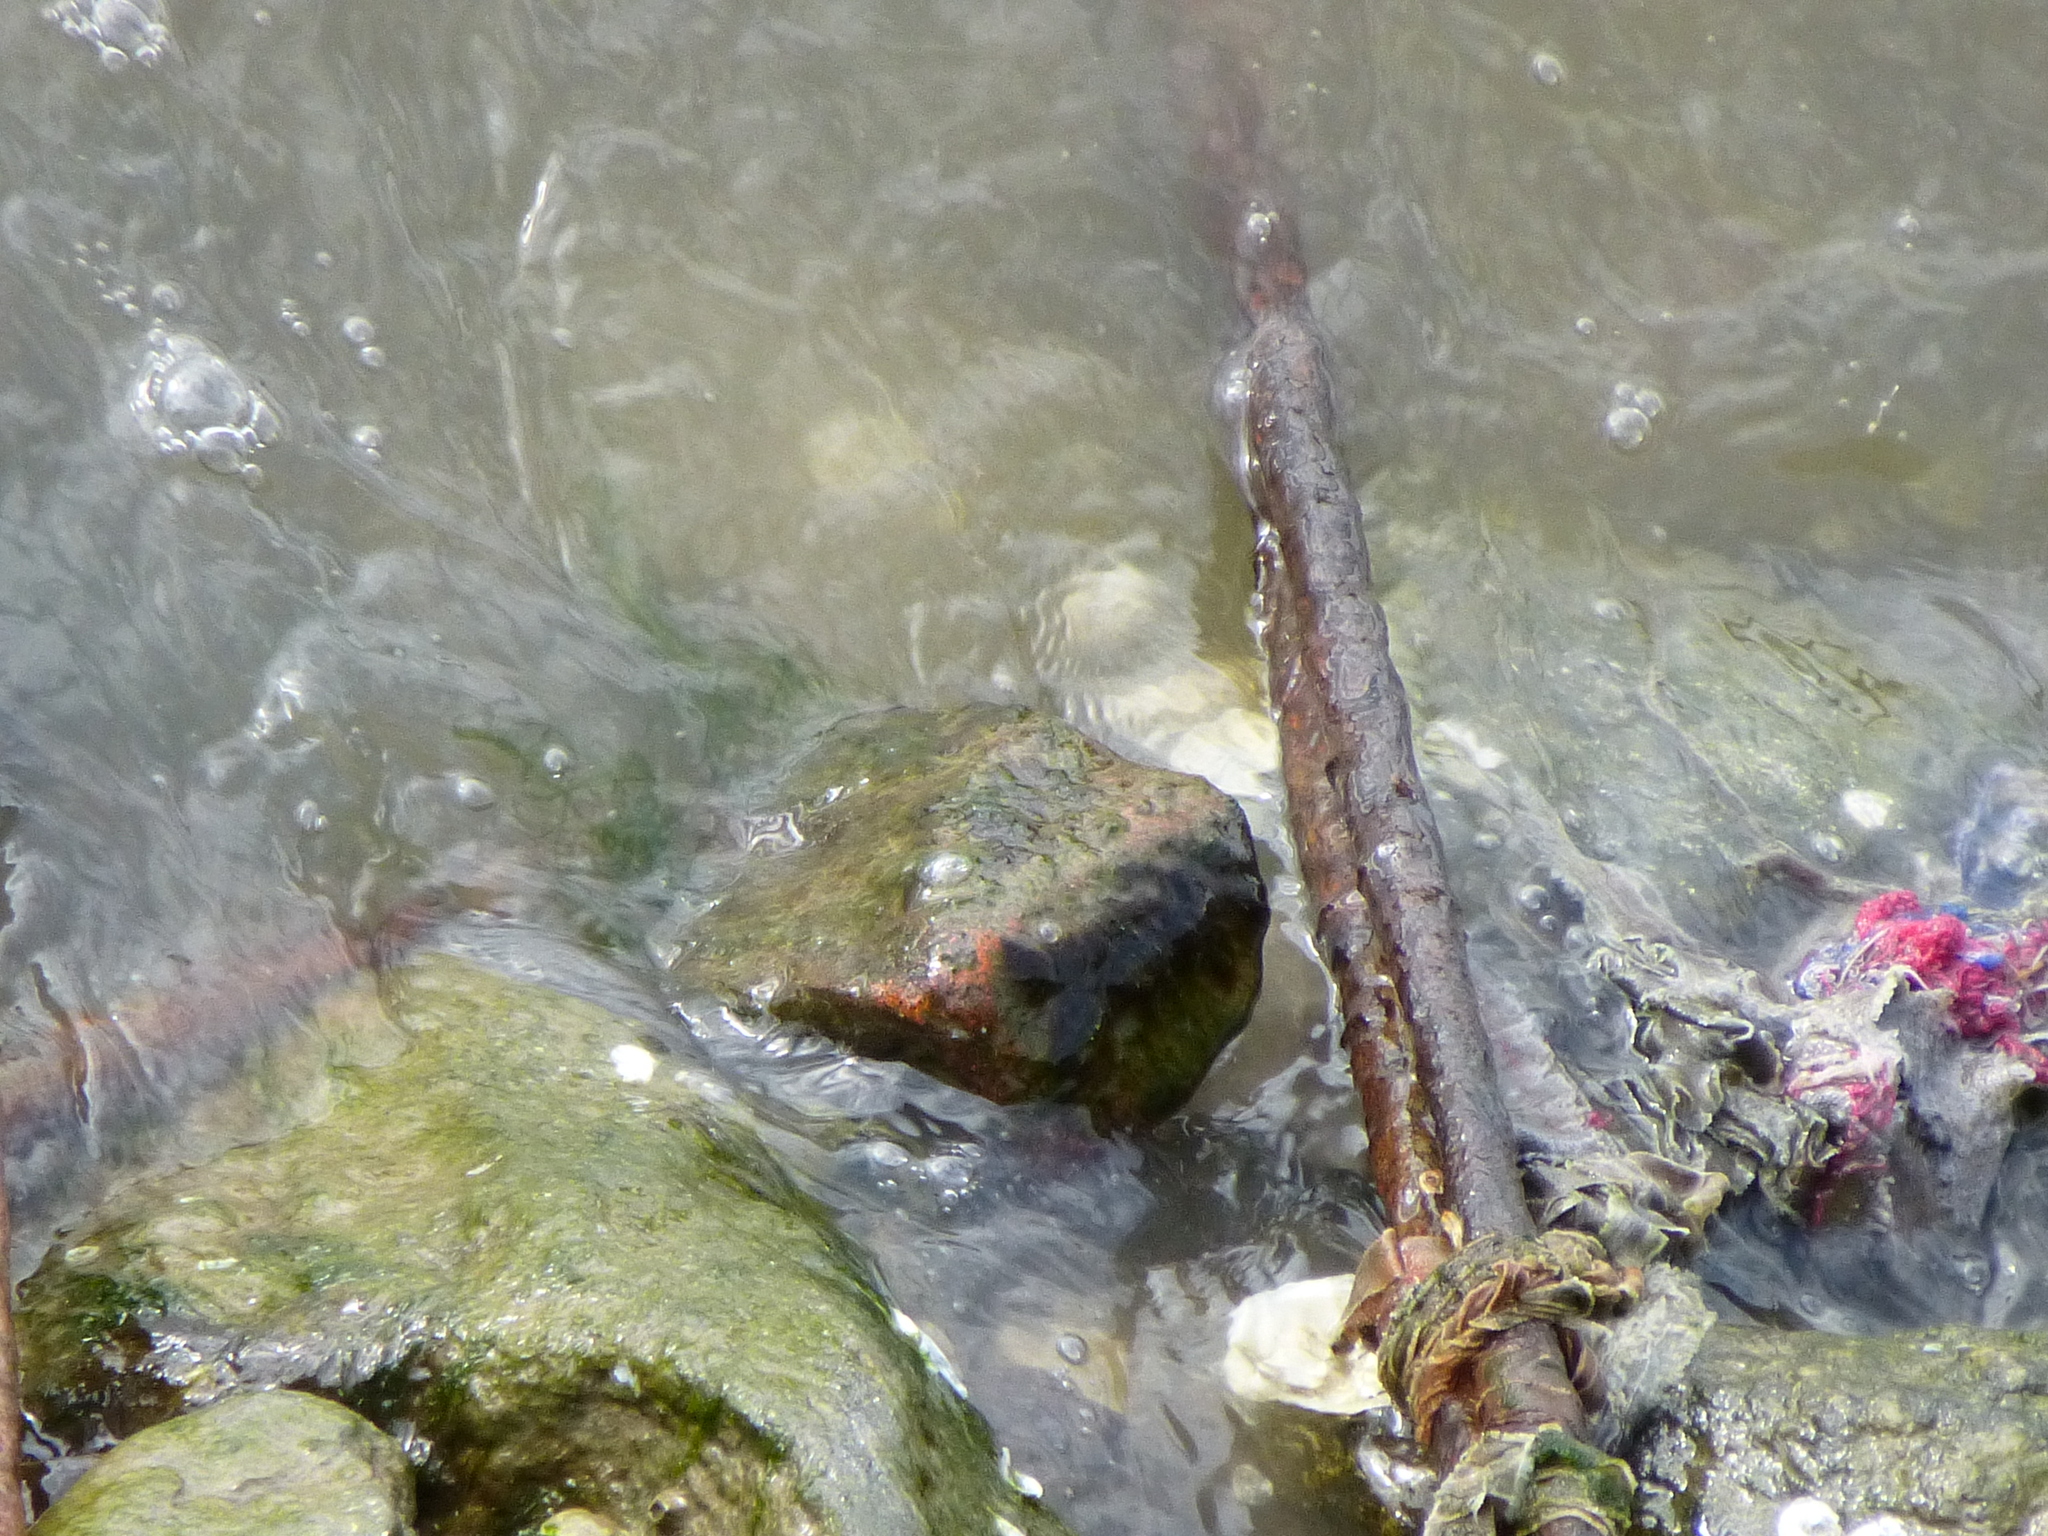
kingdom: Animalia
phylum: Mollusca
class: Bivalvia
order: Ostreida
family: Ostreidae
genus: Crassostrea
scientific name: Crassostrea virginica
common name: American oyster
